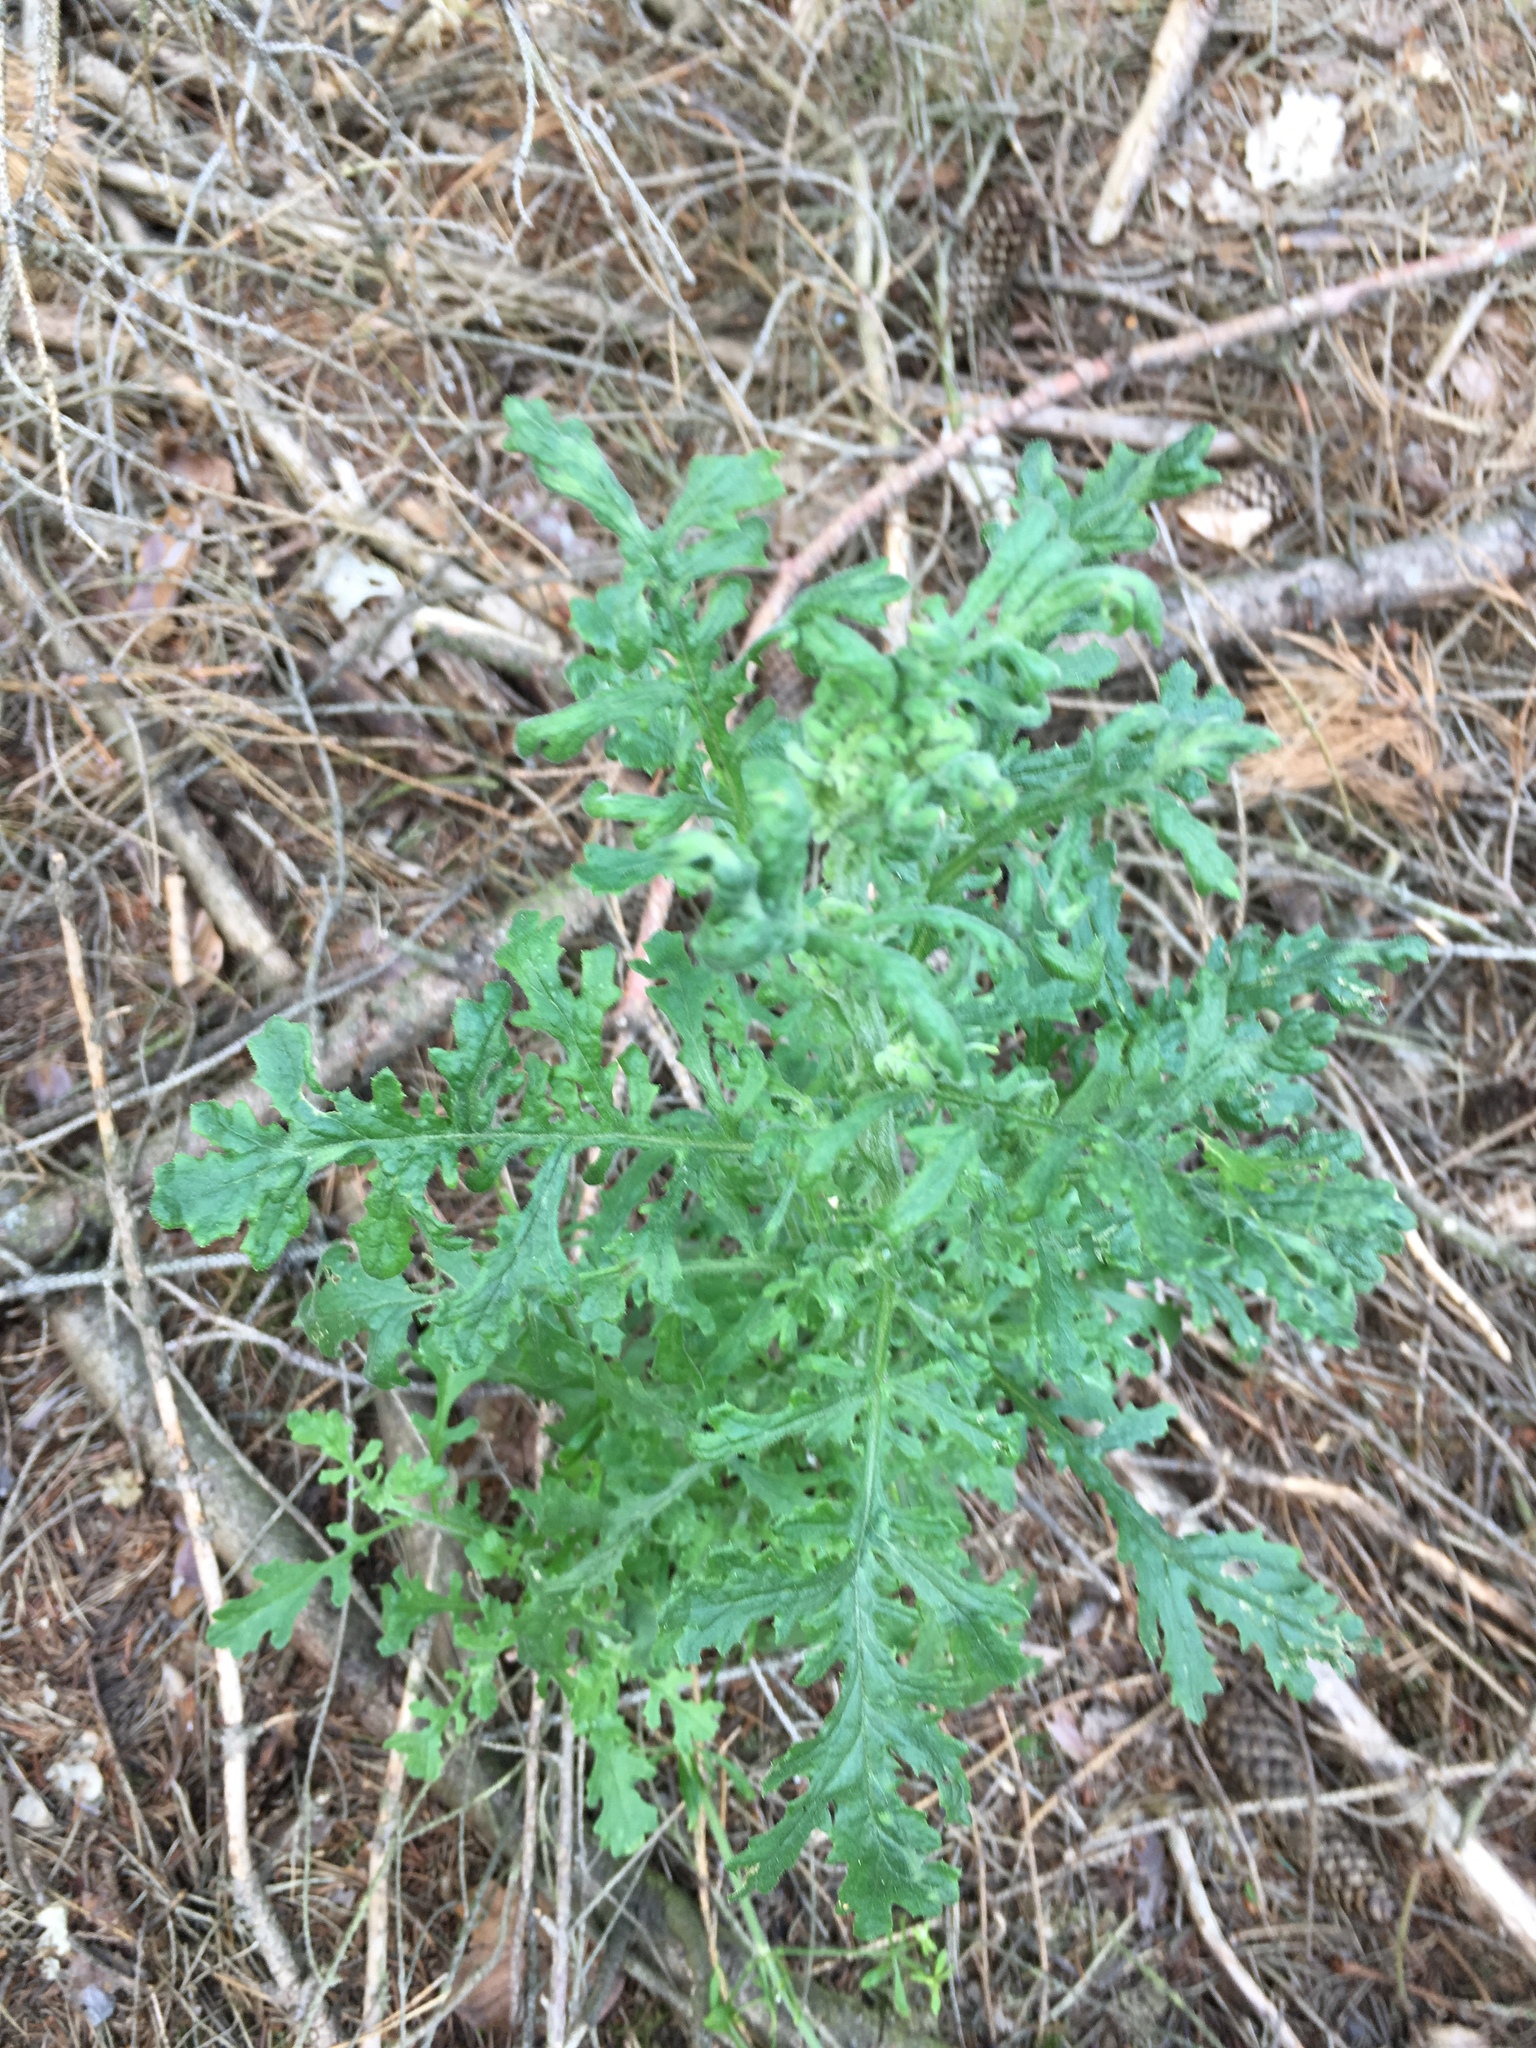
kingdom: Plantae
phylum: Tracheophyta
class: Magnoliopsida
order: Asterales
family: Asteraceae
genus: Senecio
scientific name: Senecio sylvaticus
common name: Woodland ragwort
